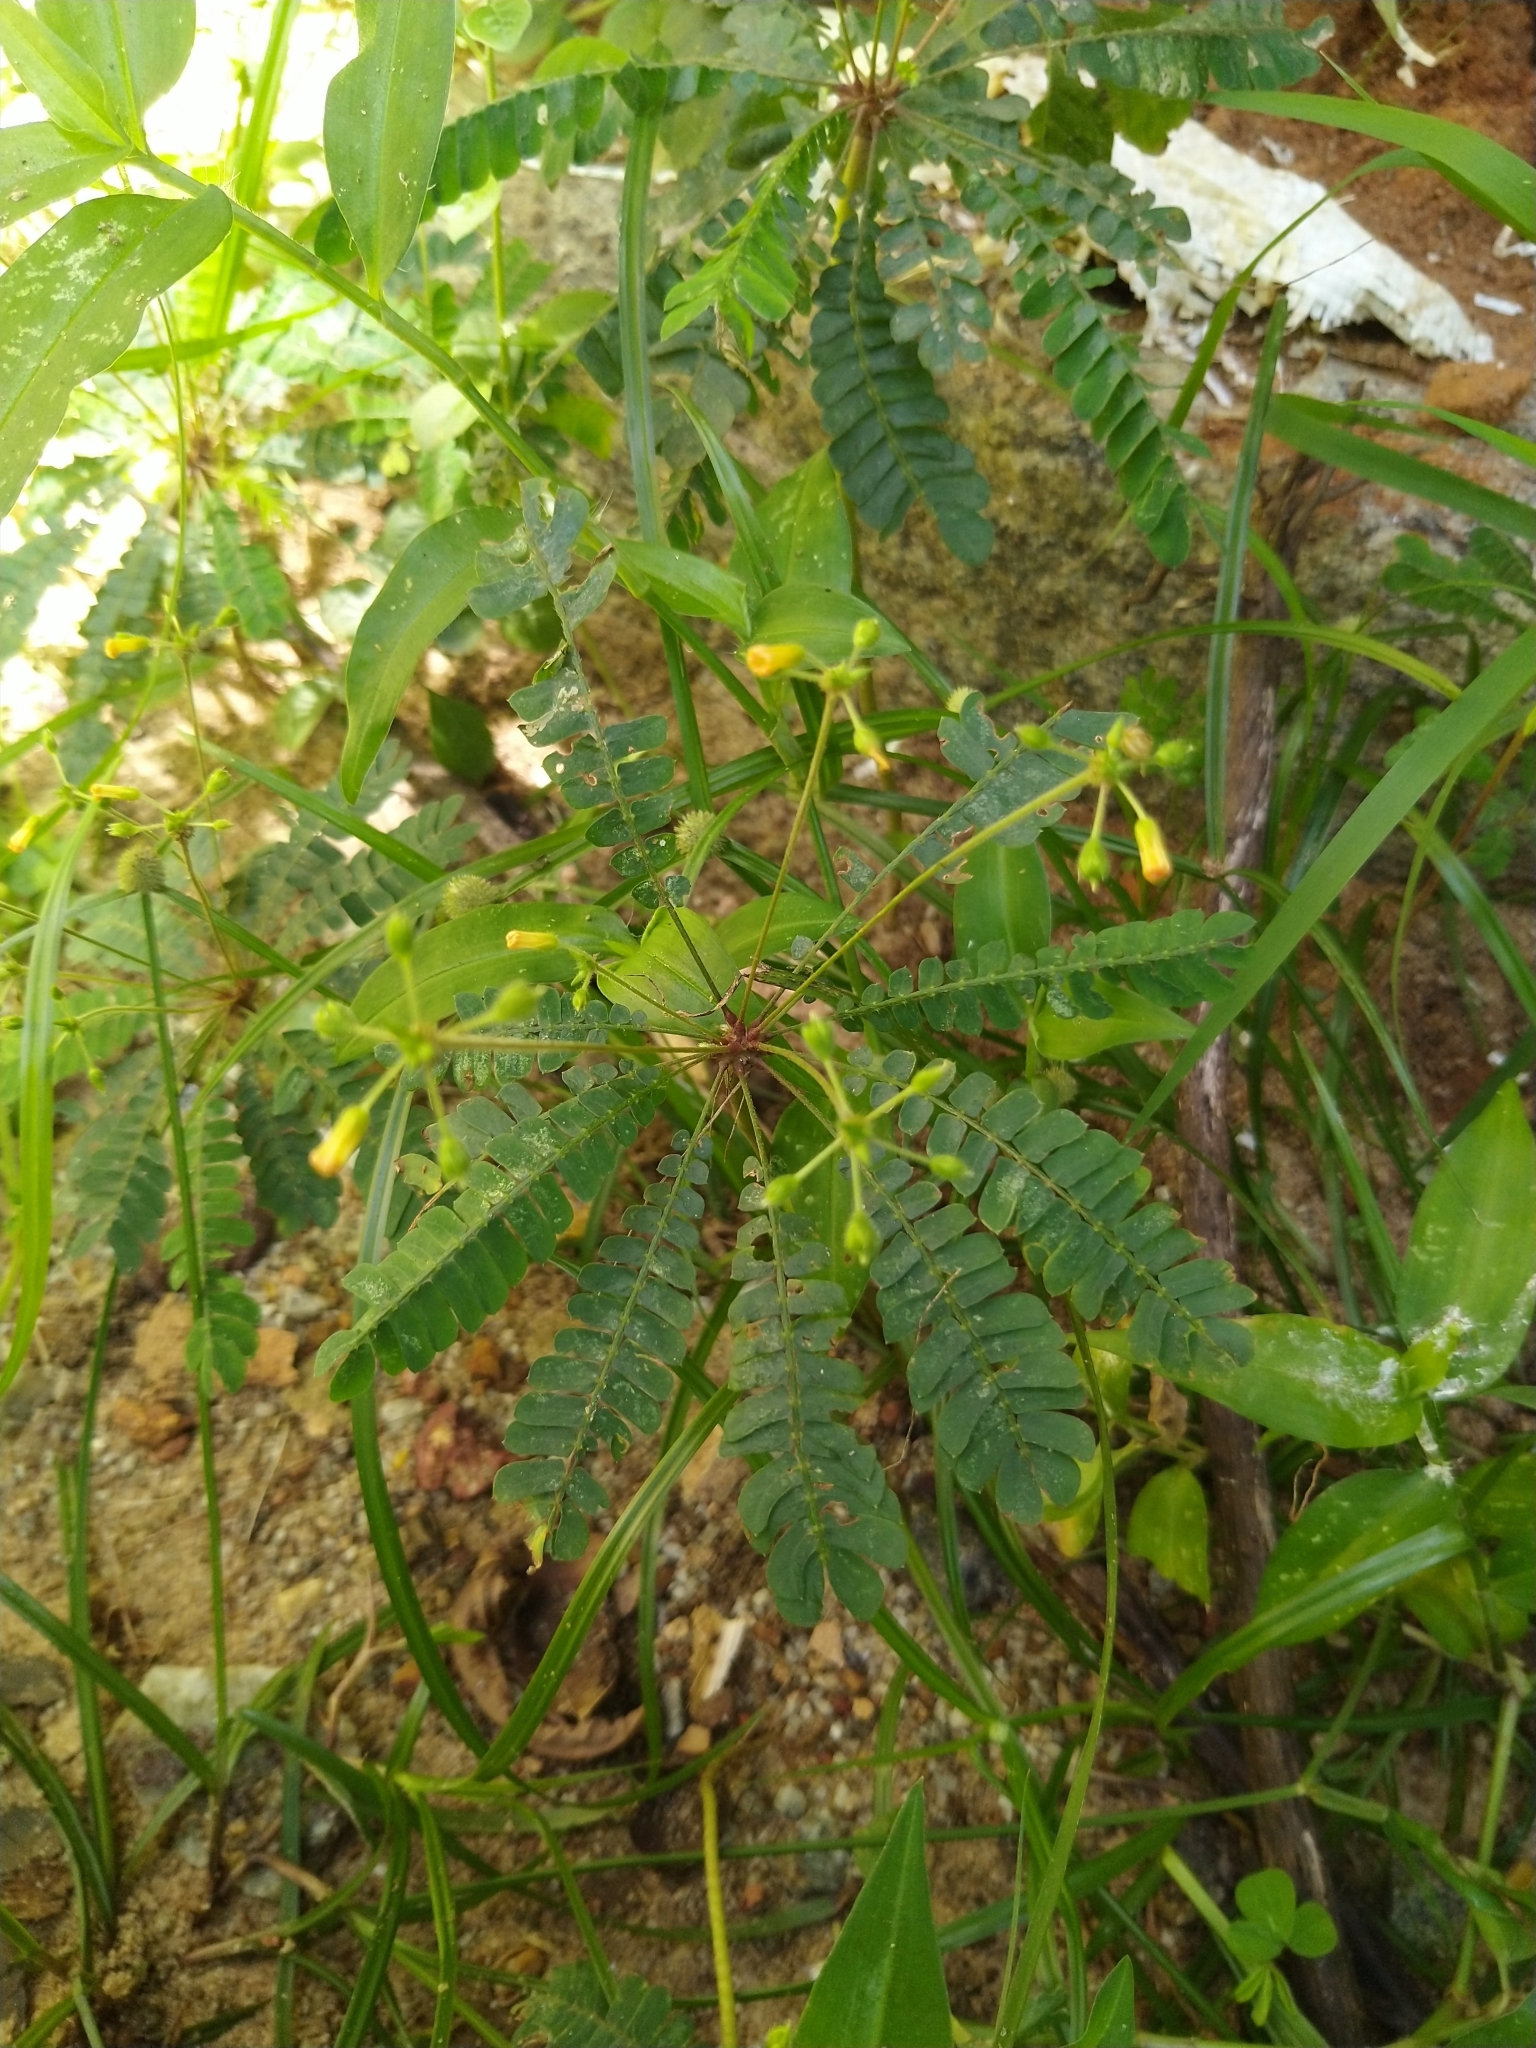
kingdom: Plantae
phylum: Tracheophyta
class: Magnoliopsida
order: Oxalidales
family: Oxalidaceae
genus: Biophytum
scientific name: Biophytum sensitivum
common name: Lifeplant
